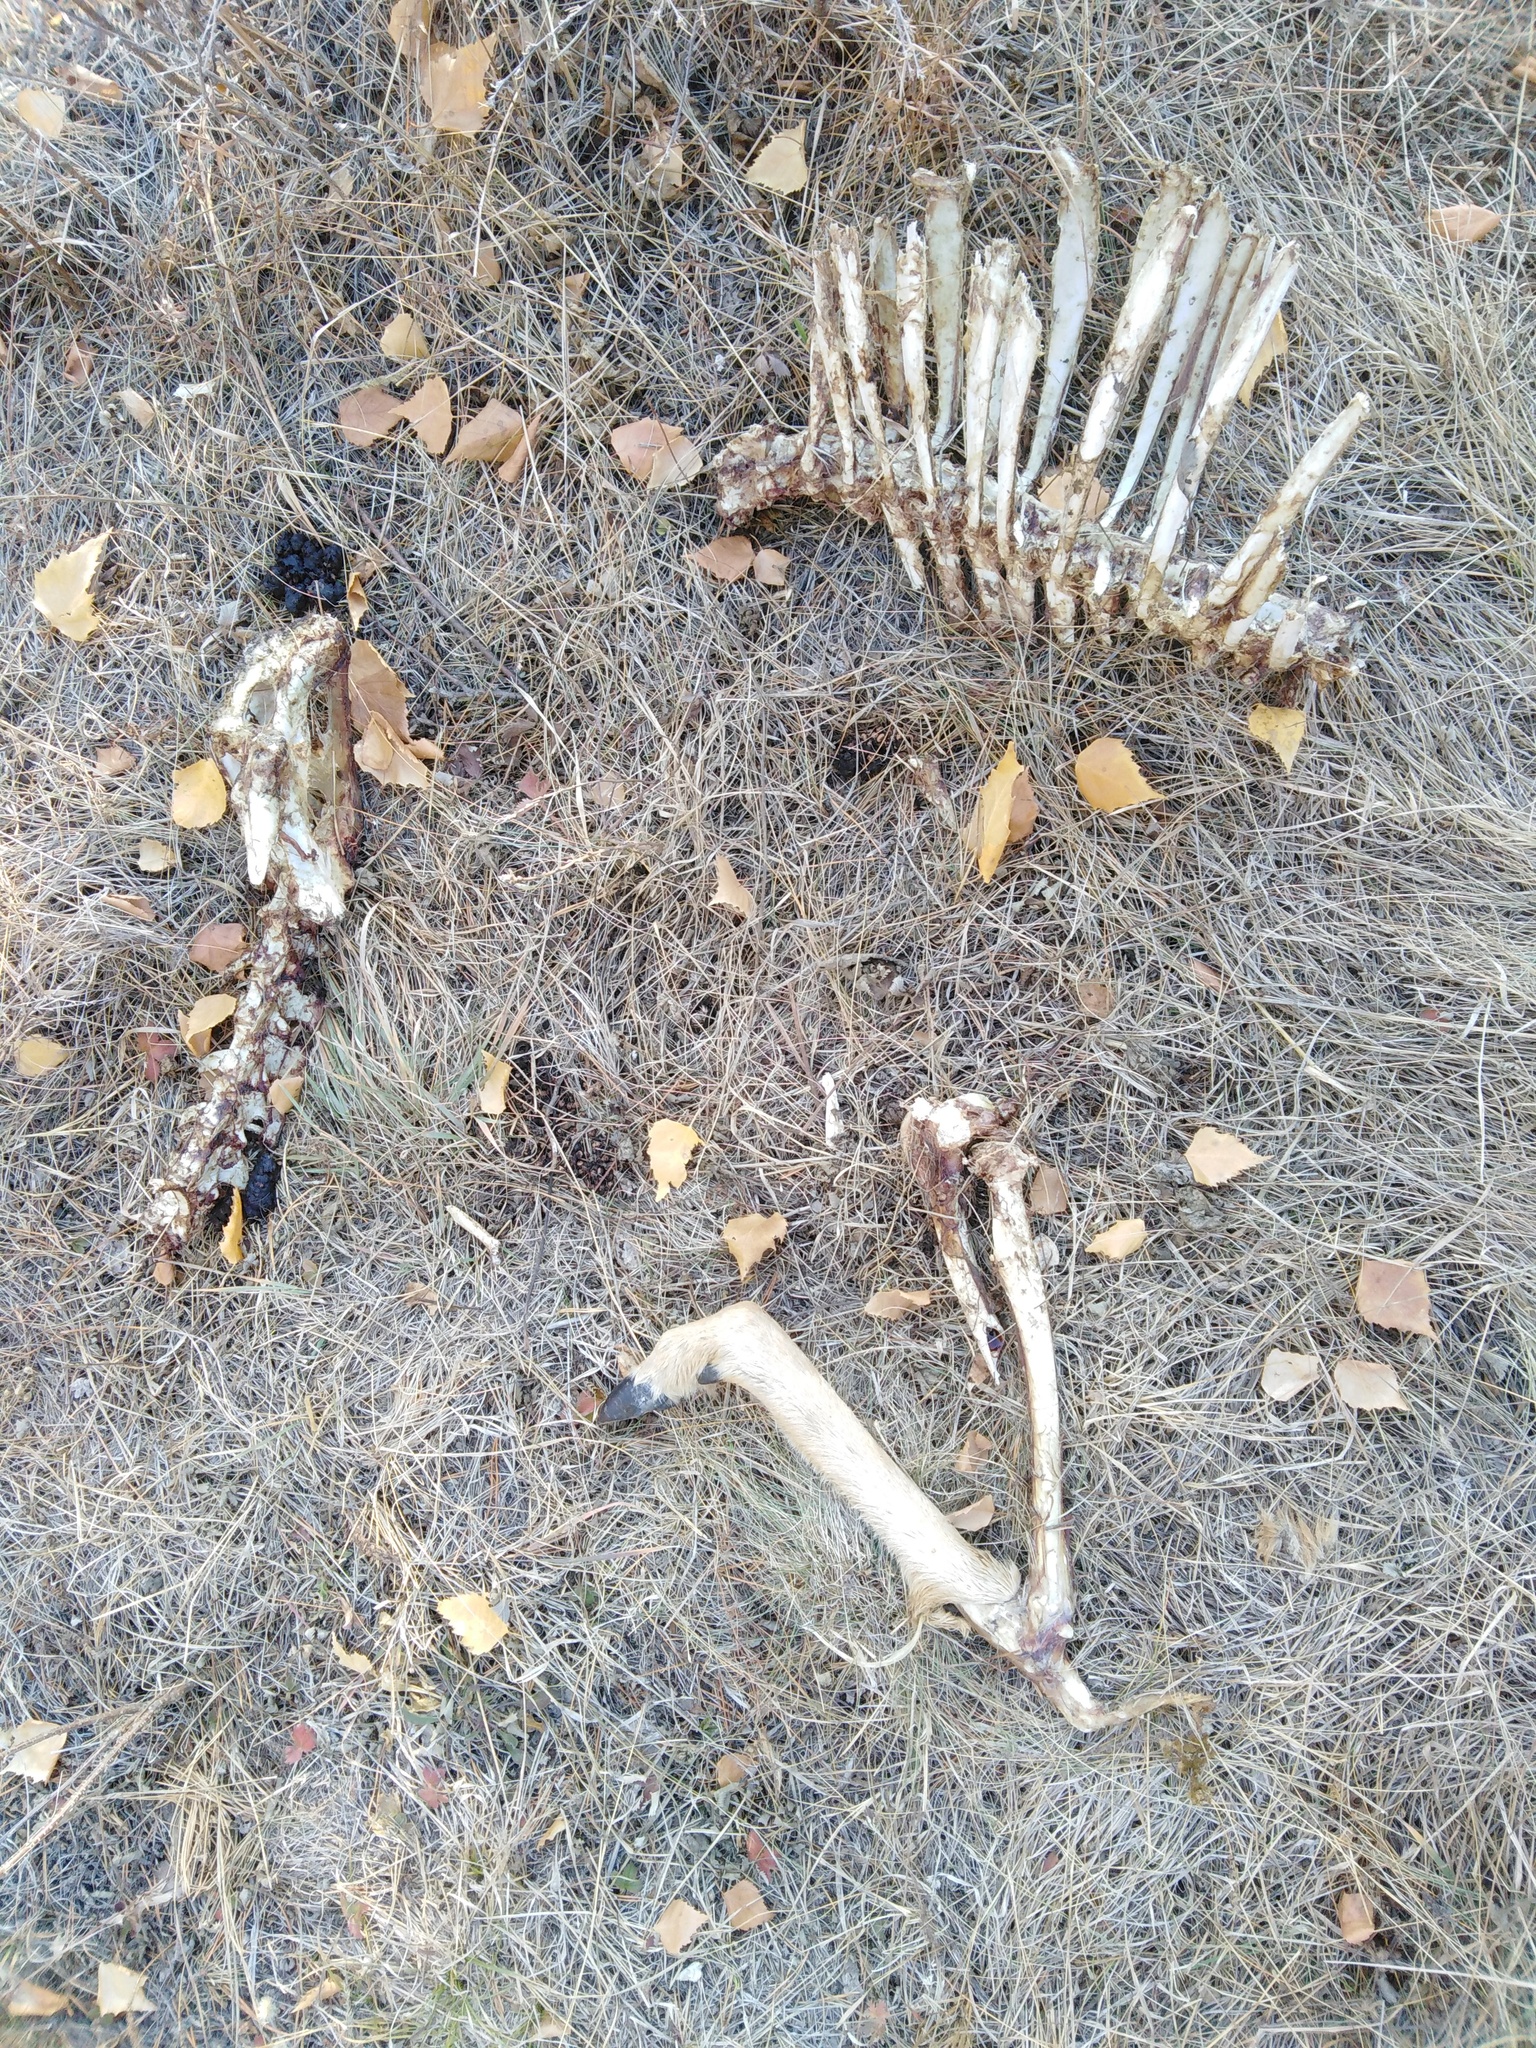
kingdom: Animalia
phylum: Chordata
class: Mammalia
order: Artiodactyla
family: Cervidae
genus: Capreolus
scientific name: Capreolus pygargus
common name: Siberian roe
